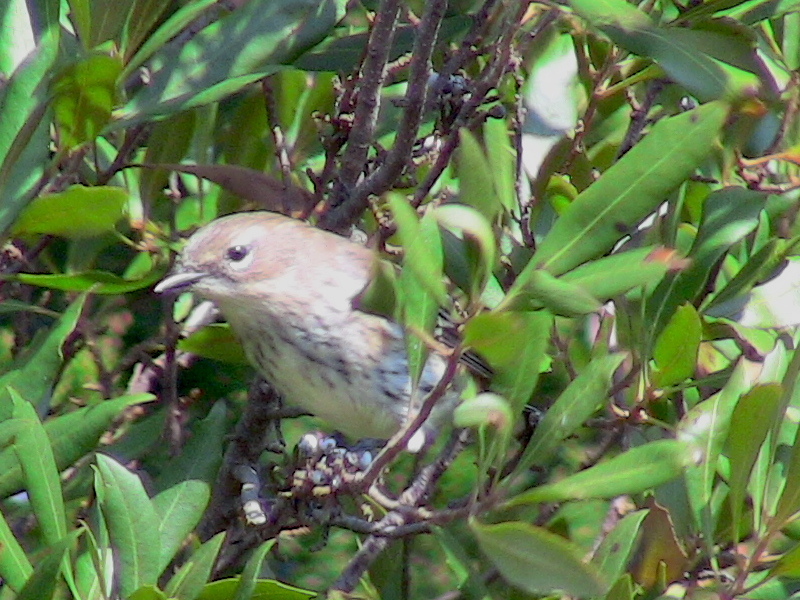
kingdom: Animalia
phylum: Chordata
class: Aves
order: Passeriformes
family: Parulidae
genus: Setophaga
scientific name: Setophaga coronata
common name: Myrtle warbler
